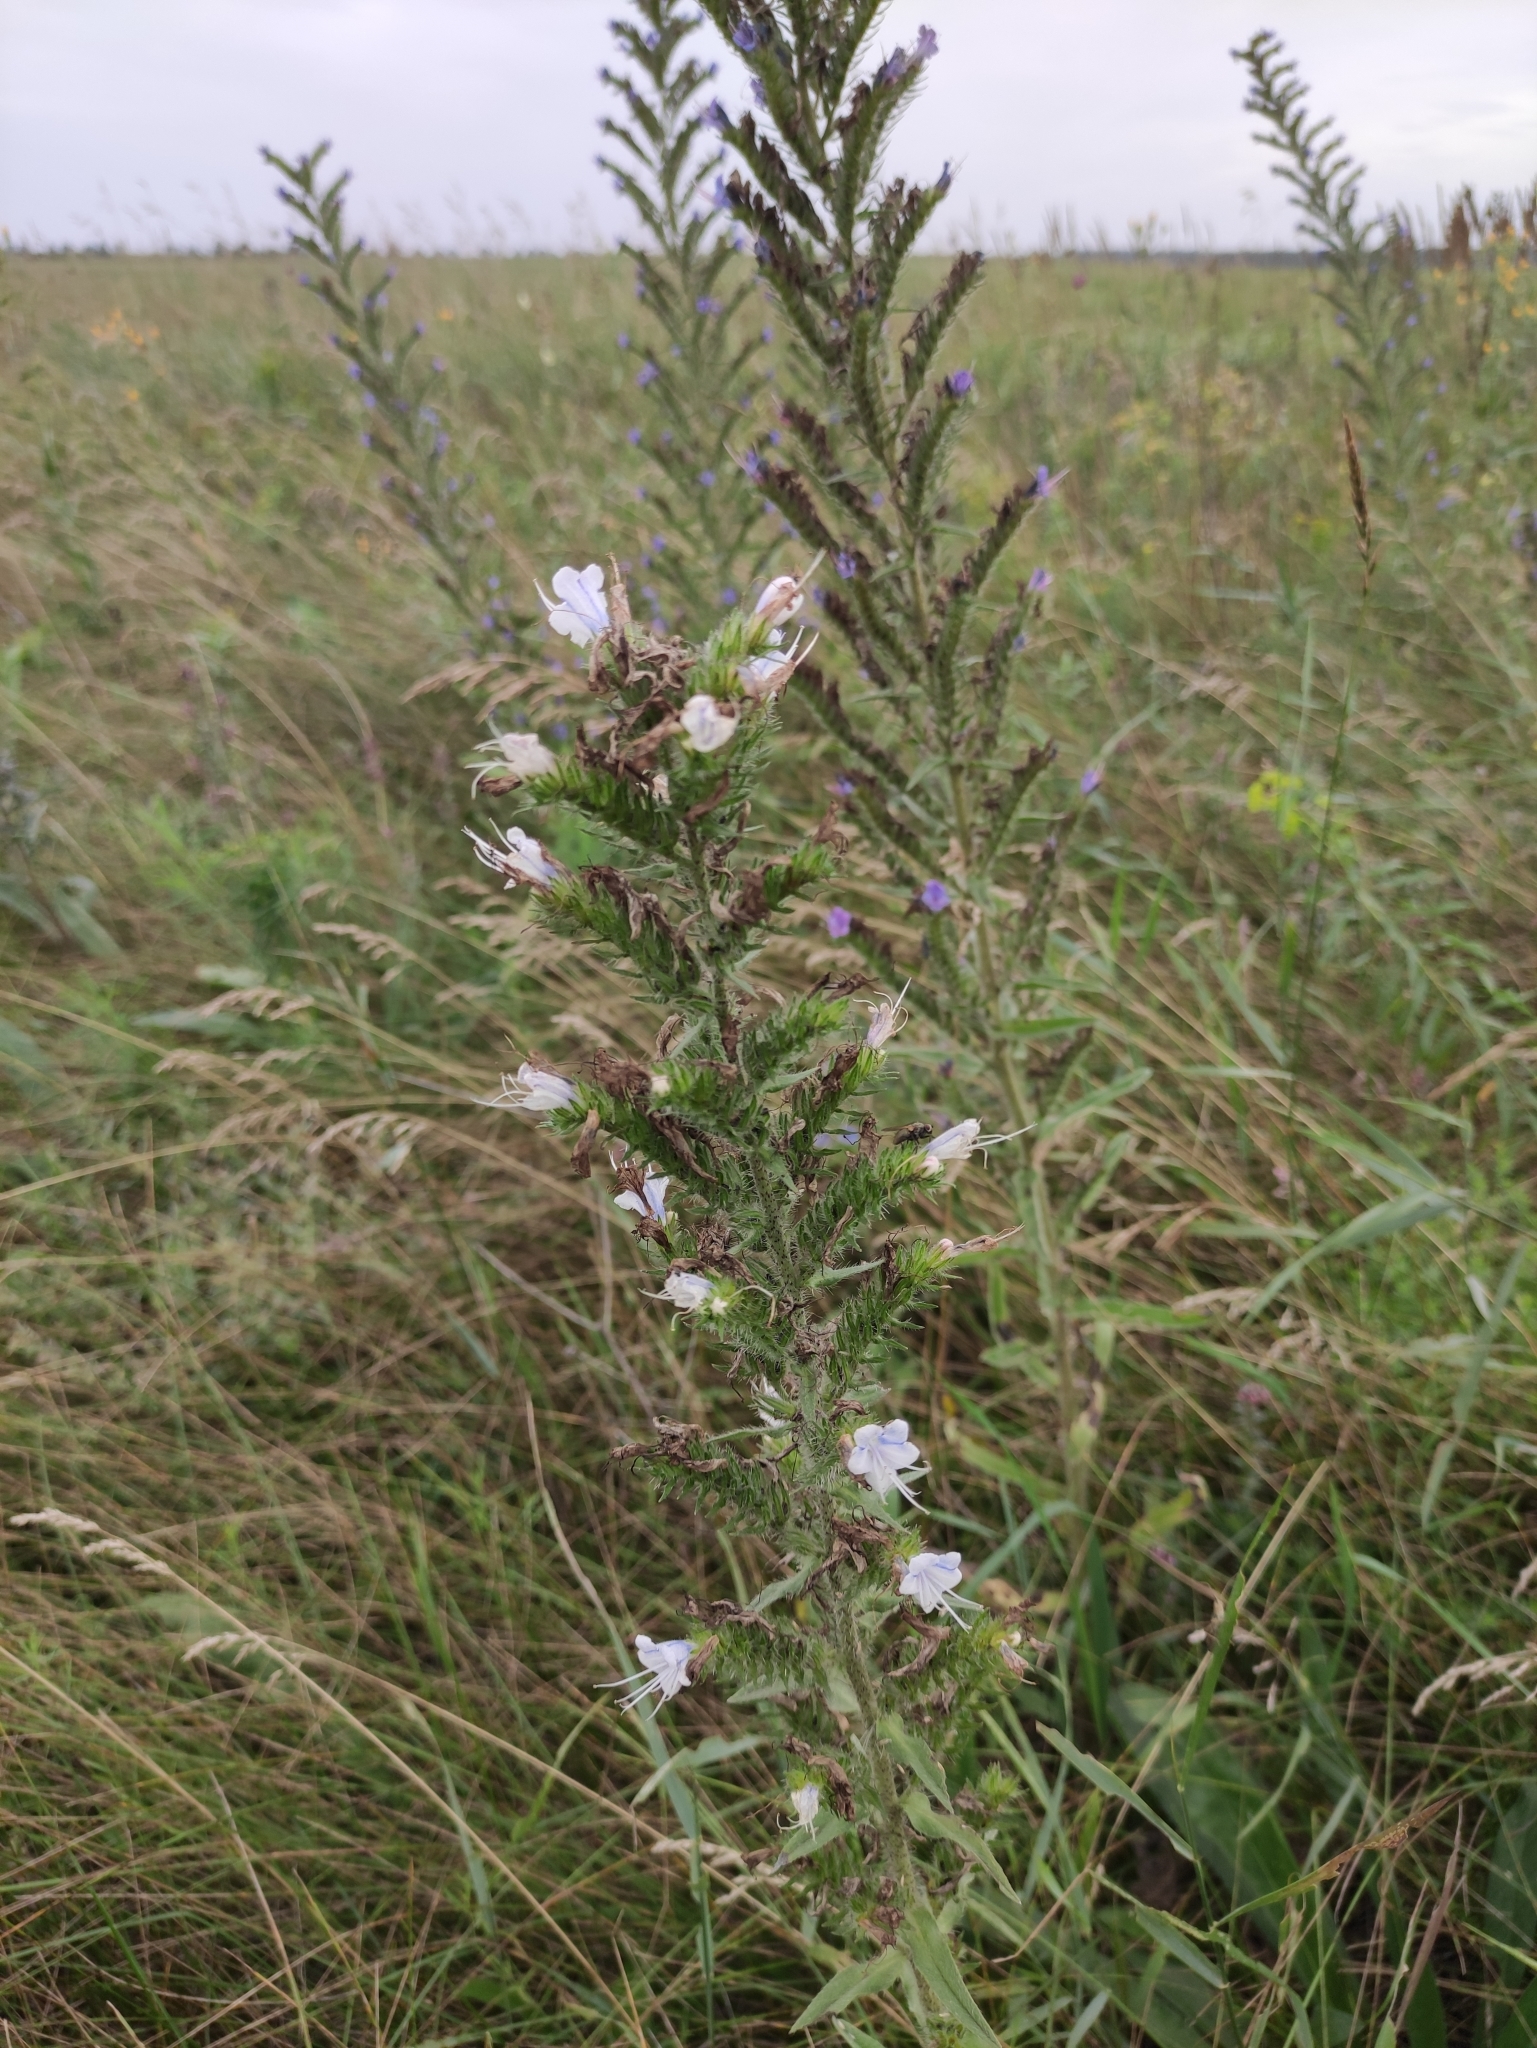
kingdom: Plantae
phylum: Tracheophyta
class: Magnoliopsida
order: Boraginales
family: Boraginaceae
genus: Echium
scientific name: Echium vulgare
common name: Common viper's bugloss
